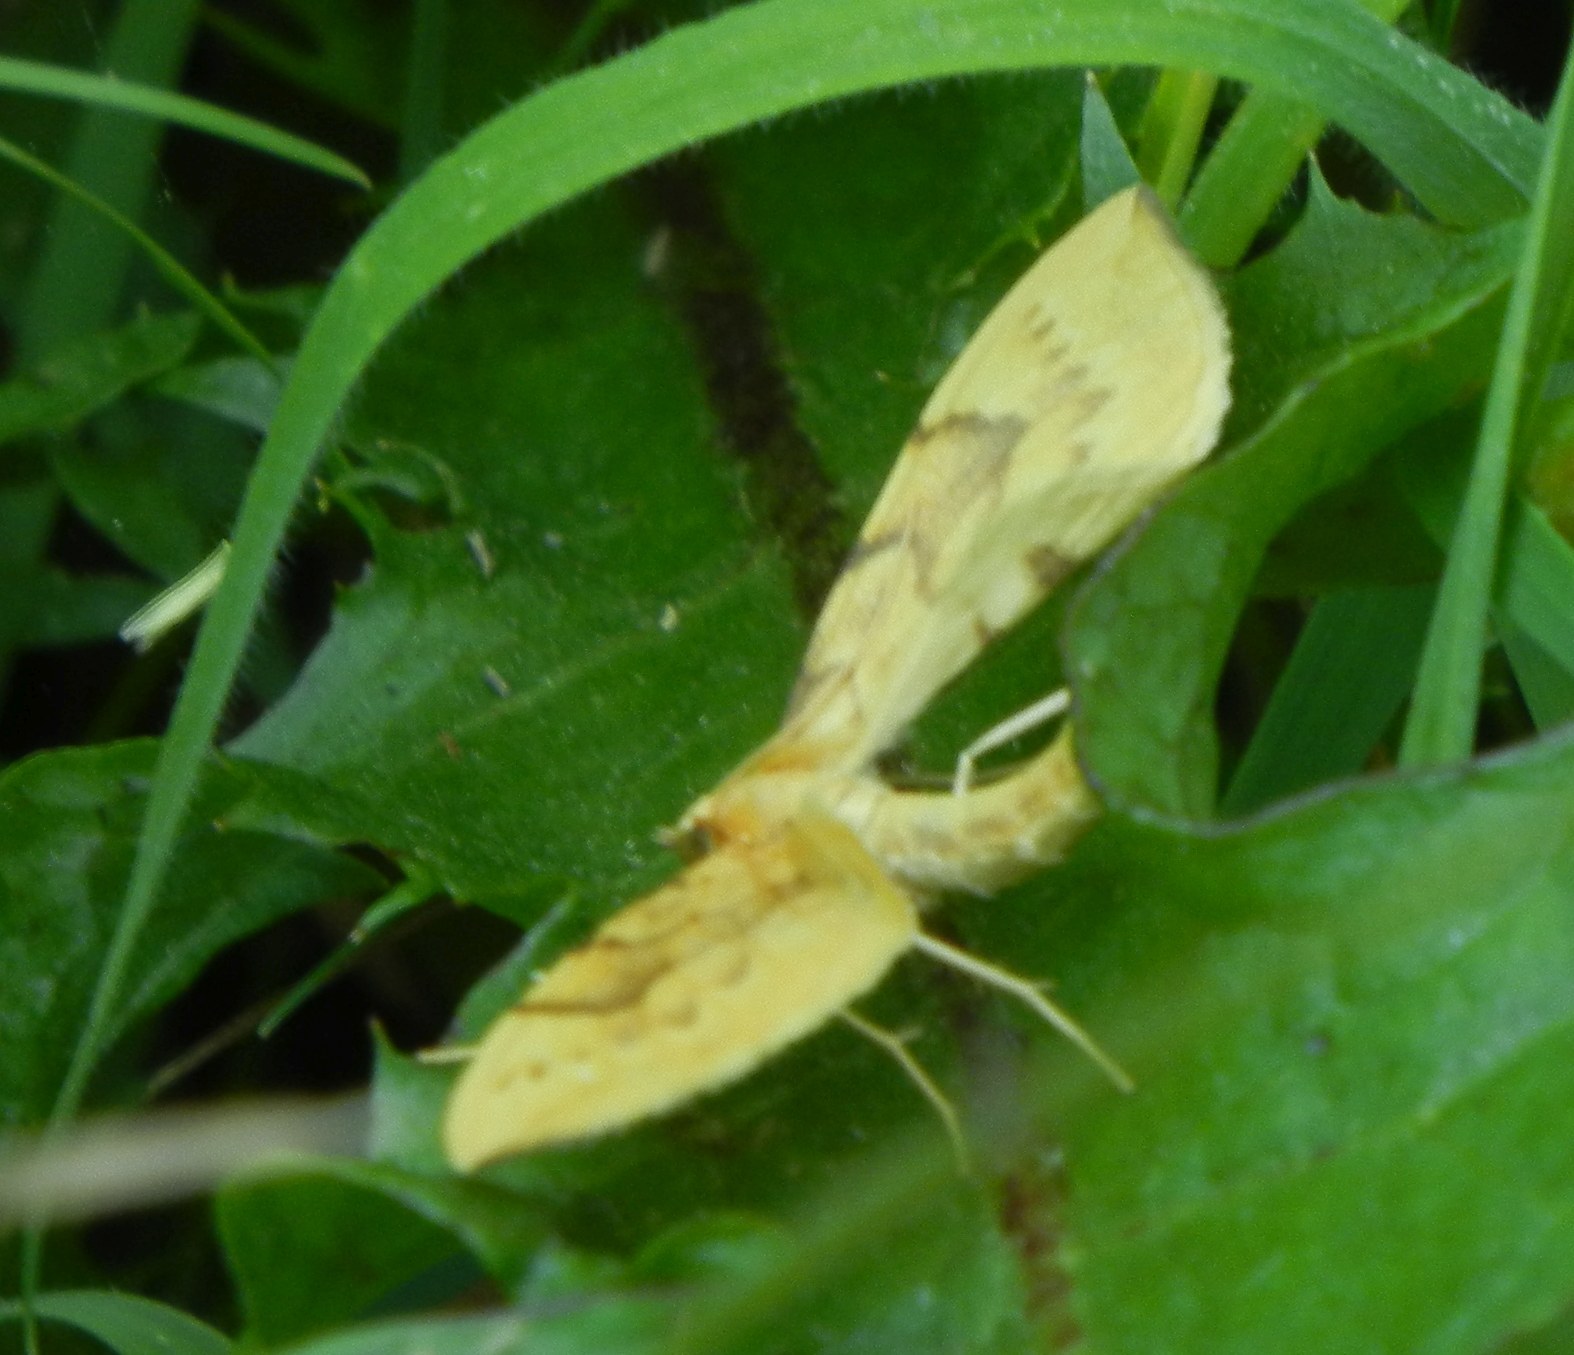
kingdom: Animalia
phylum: Arthropoda
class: Insecta
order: Lepidoptera
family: Geometridae
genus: Eulithis
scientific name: Eulithis pyraliata
